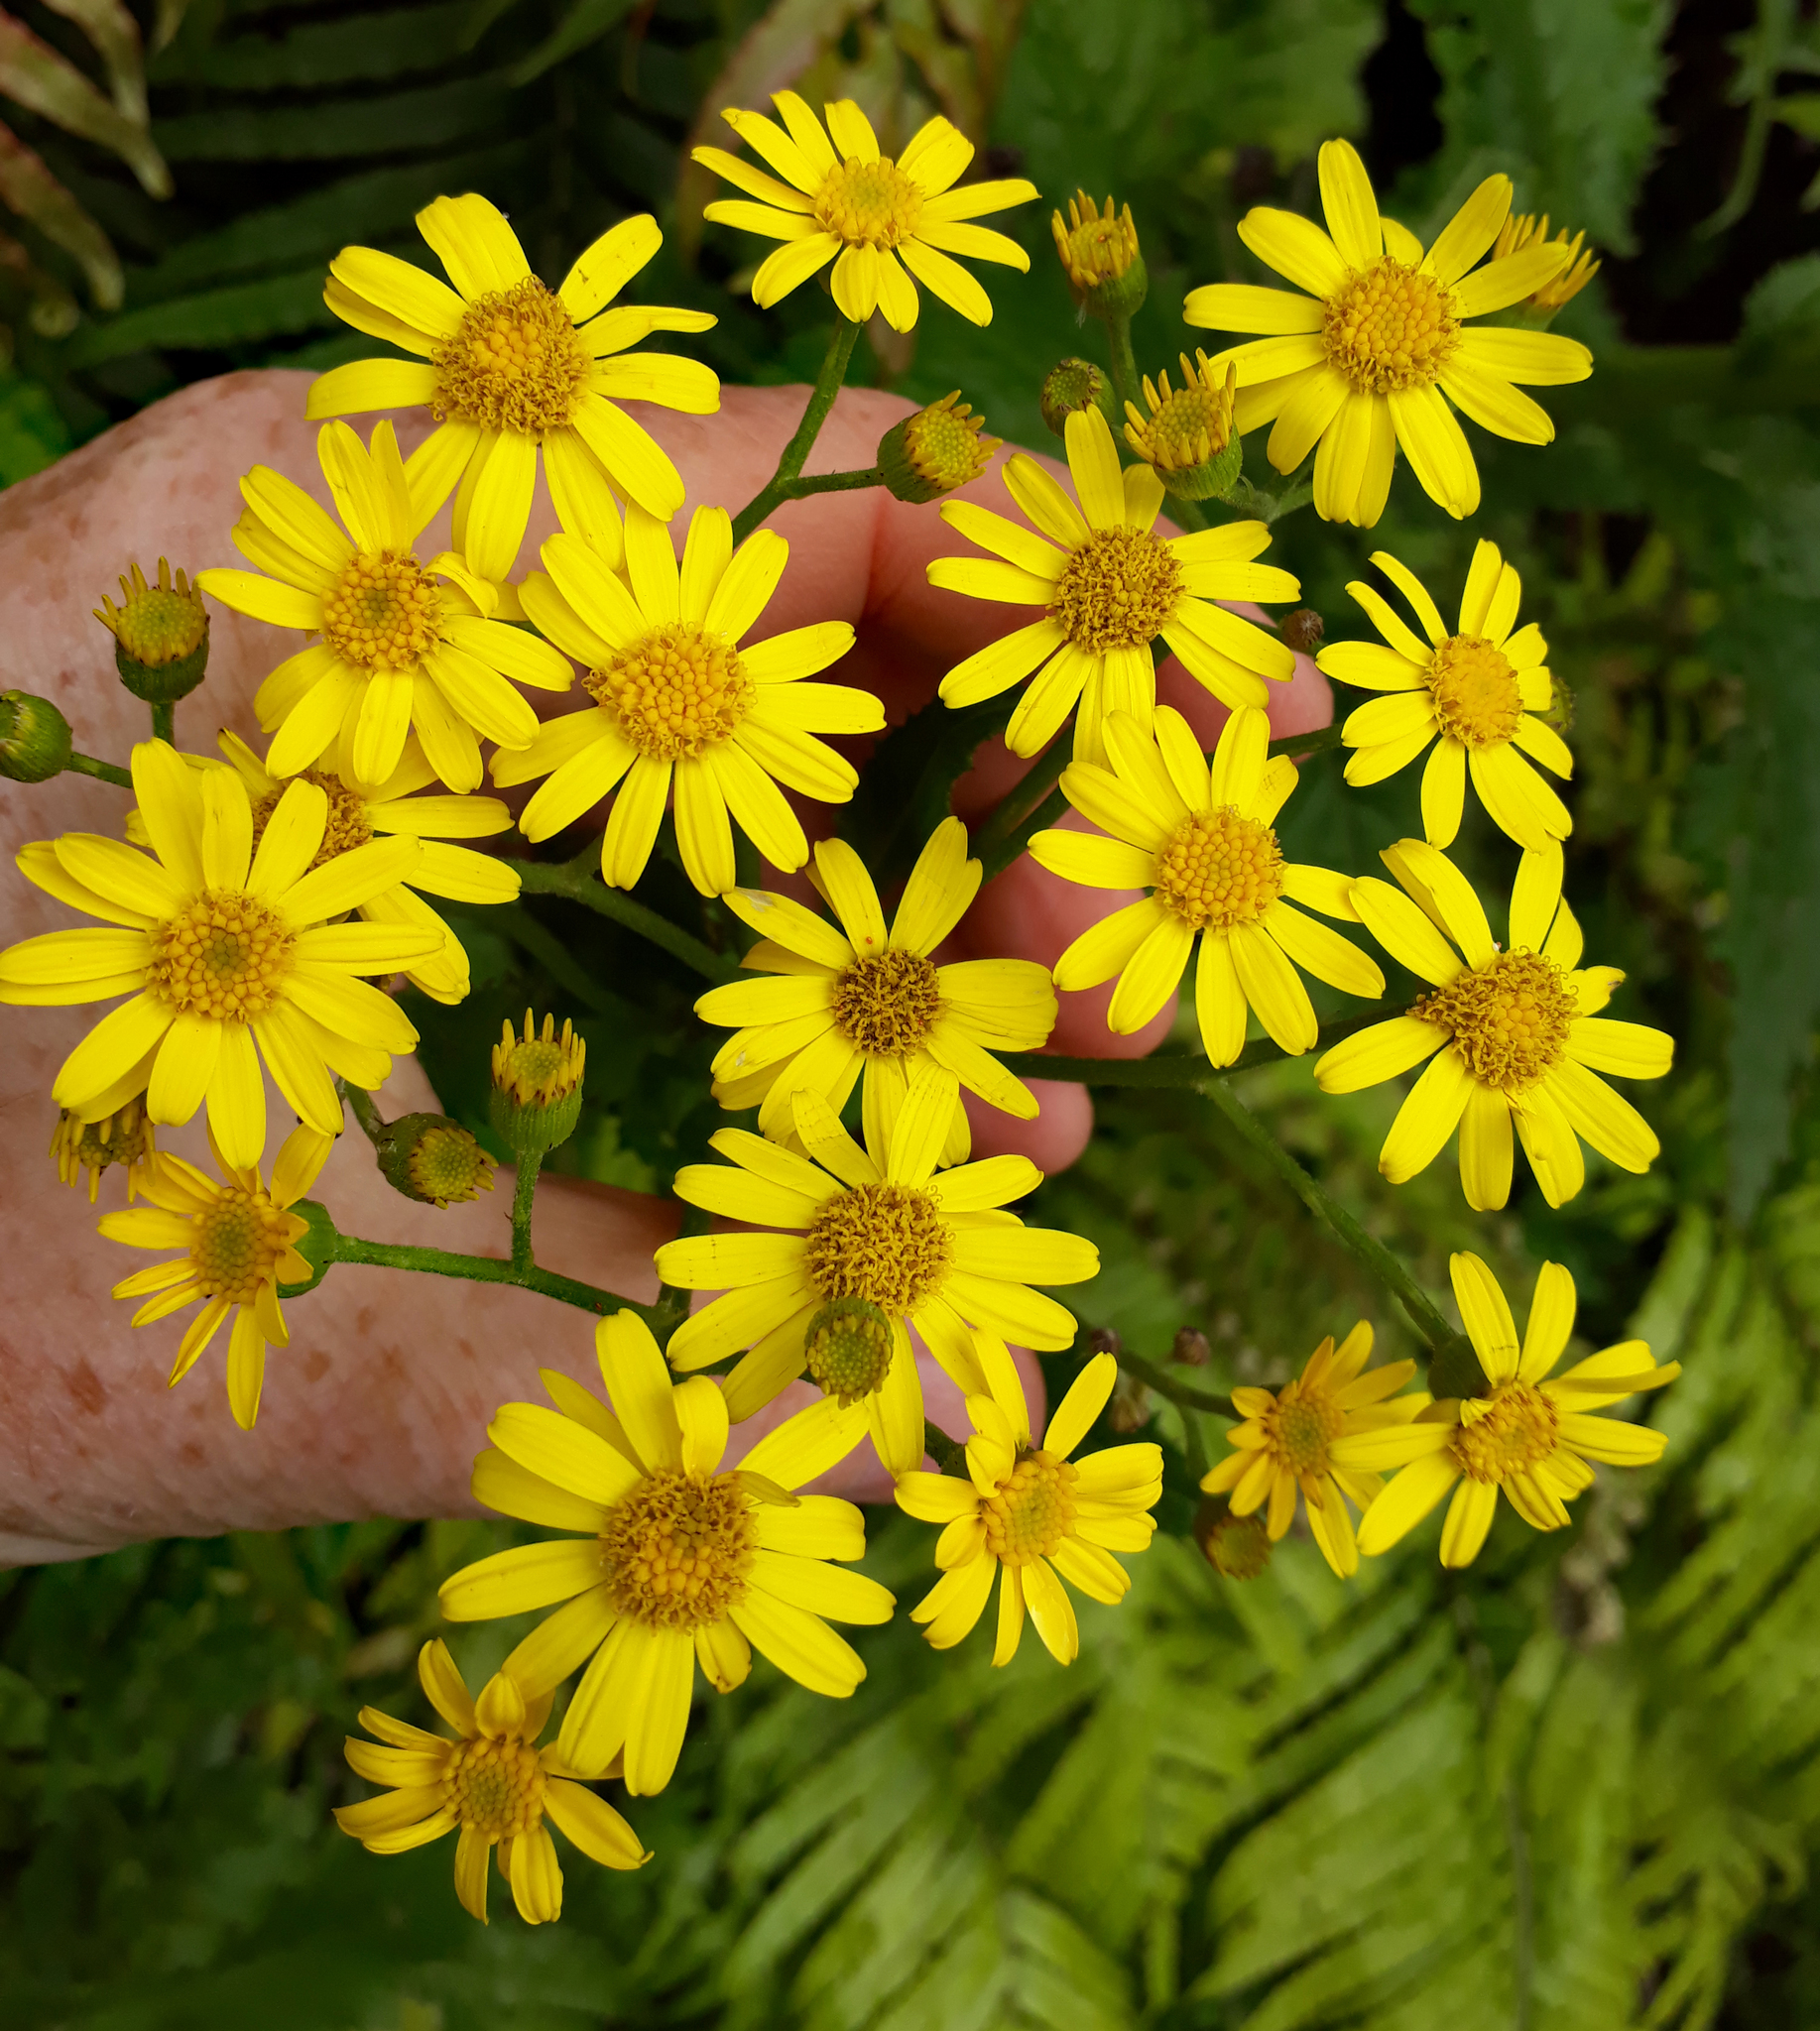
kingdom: Plantae
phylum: Tracheophyta
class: Magnoliopsida
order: Asterales
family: Asteraceae
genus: Senecio
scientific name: Senecio rufiglandulosus
